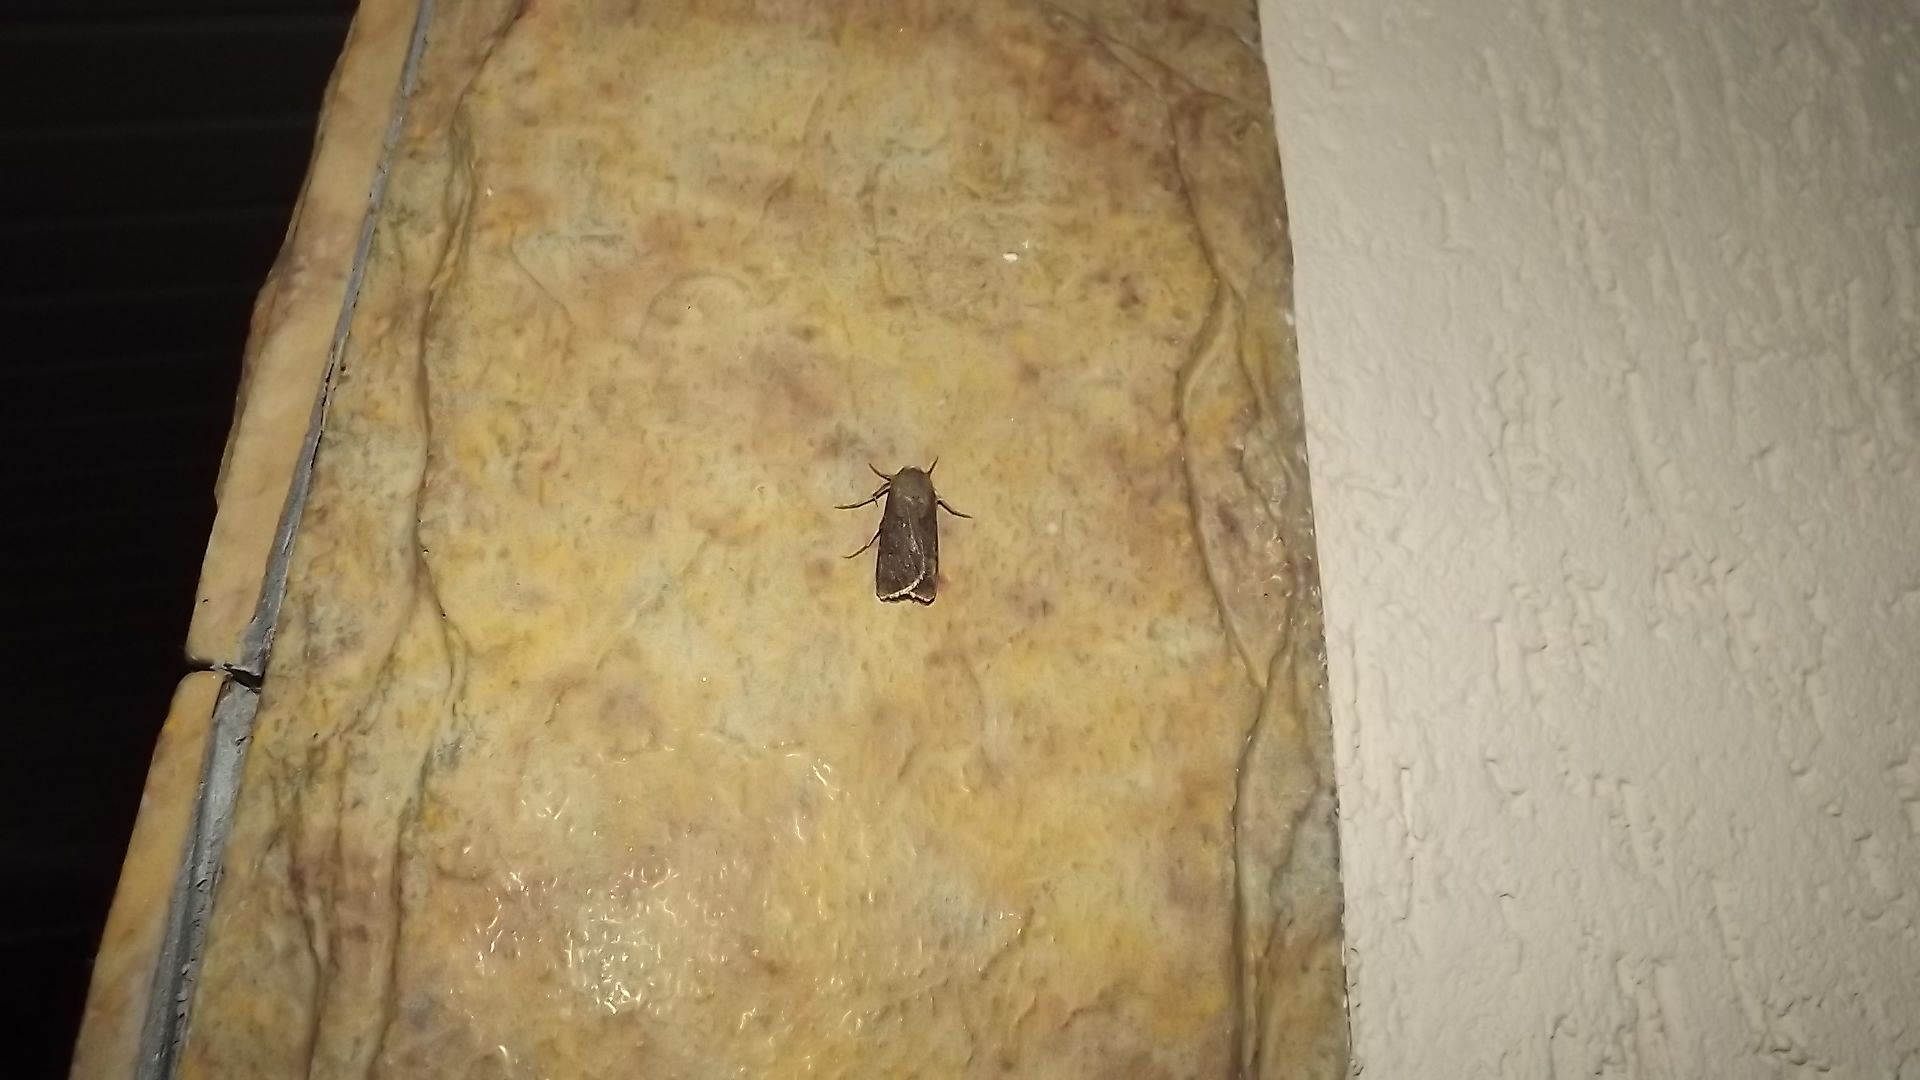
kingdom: Animalia
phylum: Arthropoda
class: Insecta
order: Lepidoptera
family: Noctuidae
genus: Agrotis
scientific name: Agrotis segetum
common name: Turnip moth
